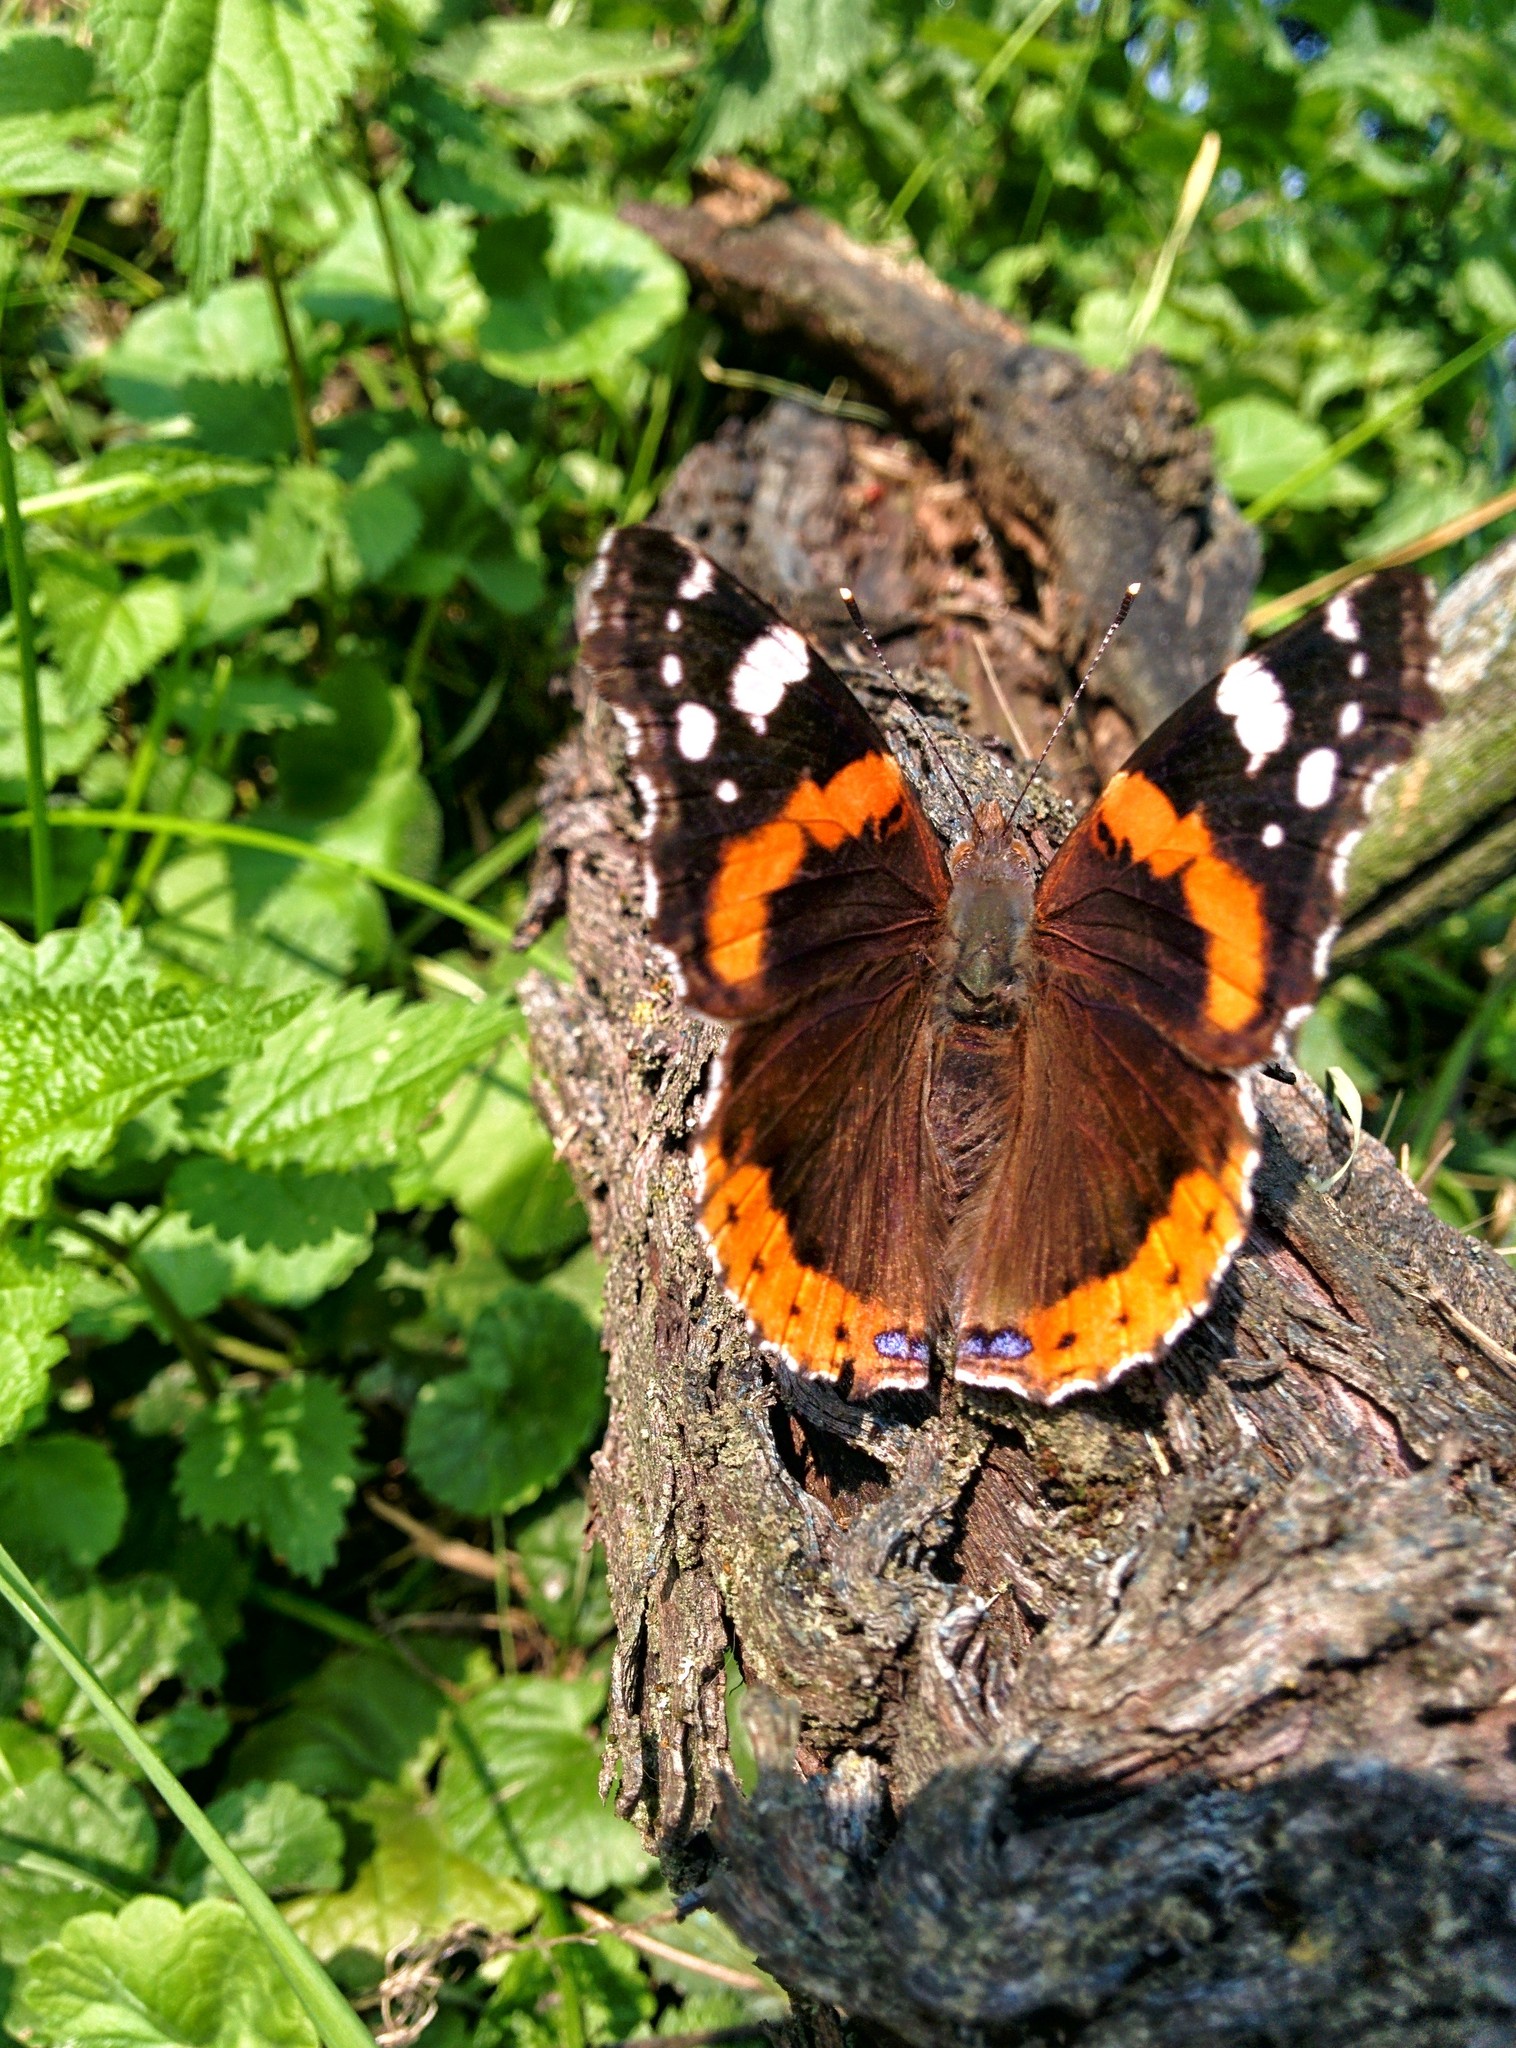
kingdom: Animalia
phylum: Arthropoda
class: Insecta
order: Lepidoptera
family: Nymphalidae
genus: Vanessa
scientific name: Vanessa atalanta
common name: Red admiral
